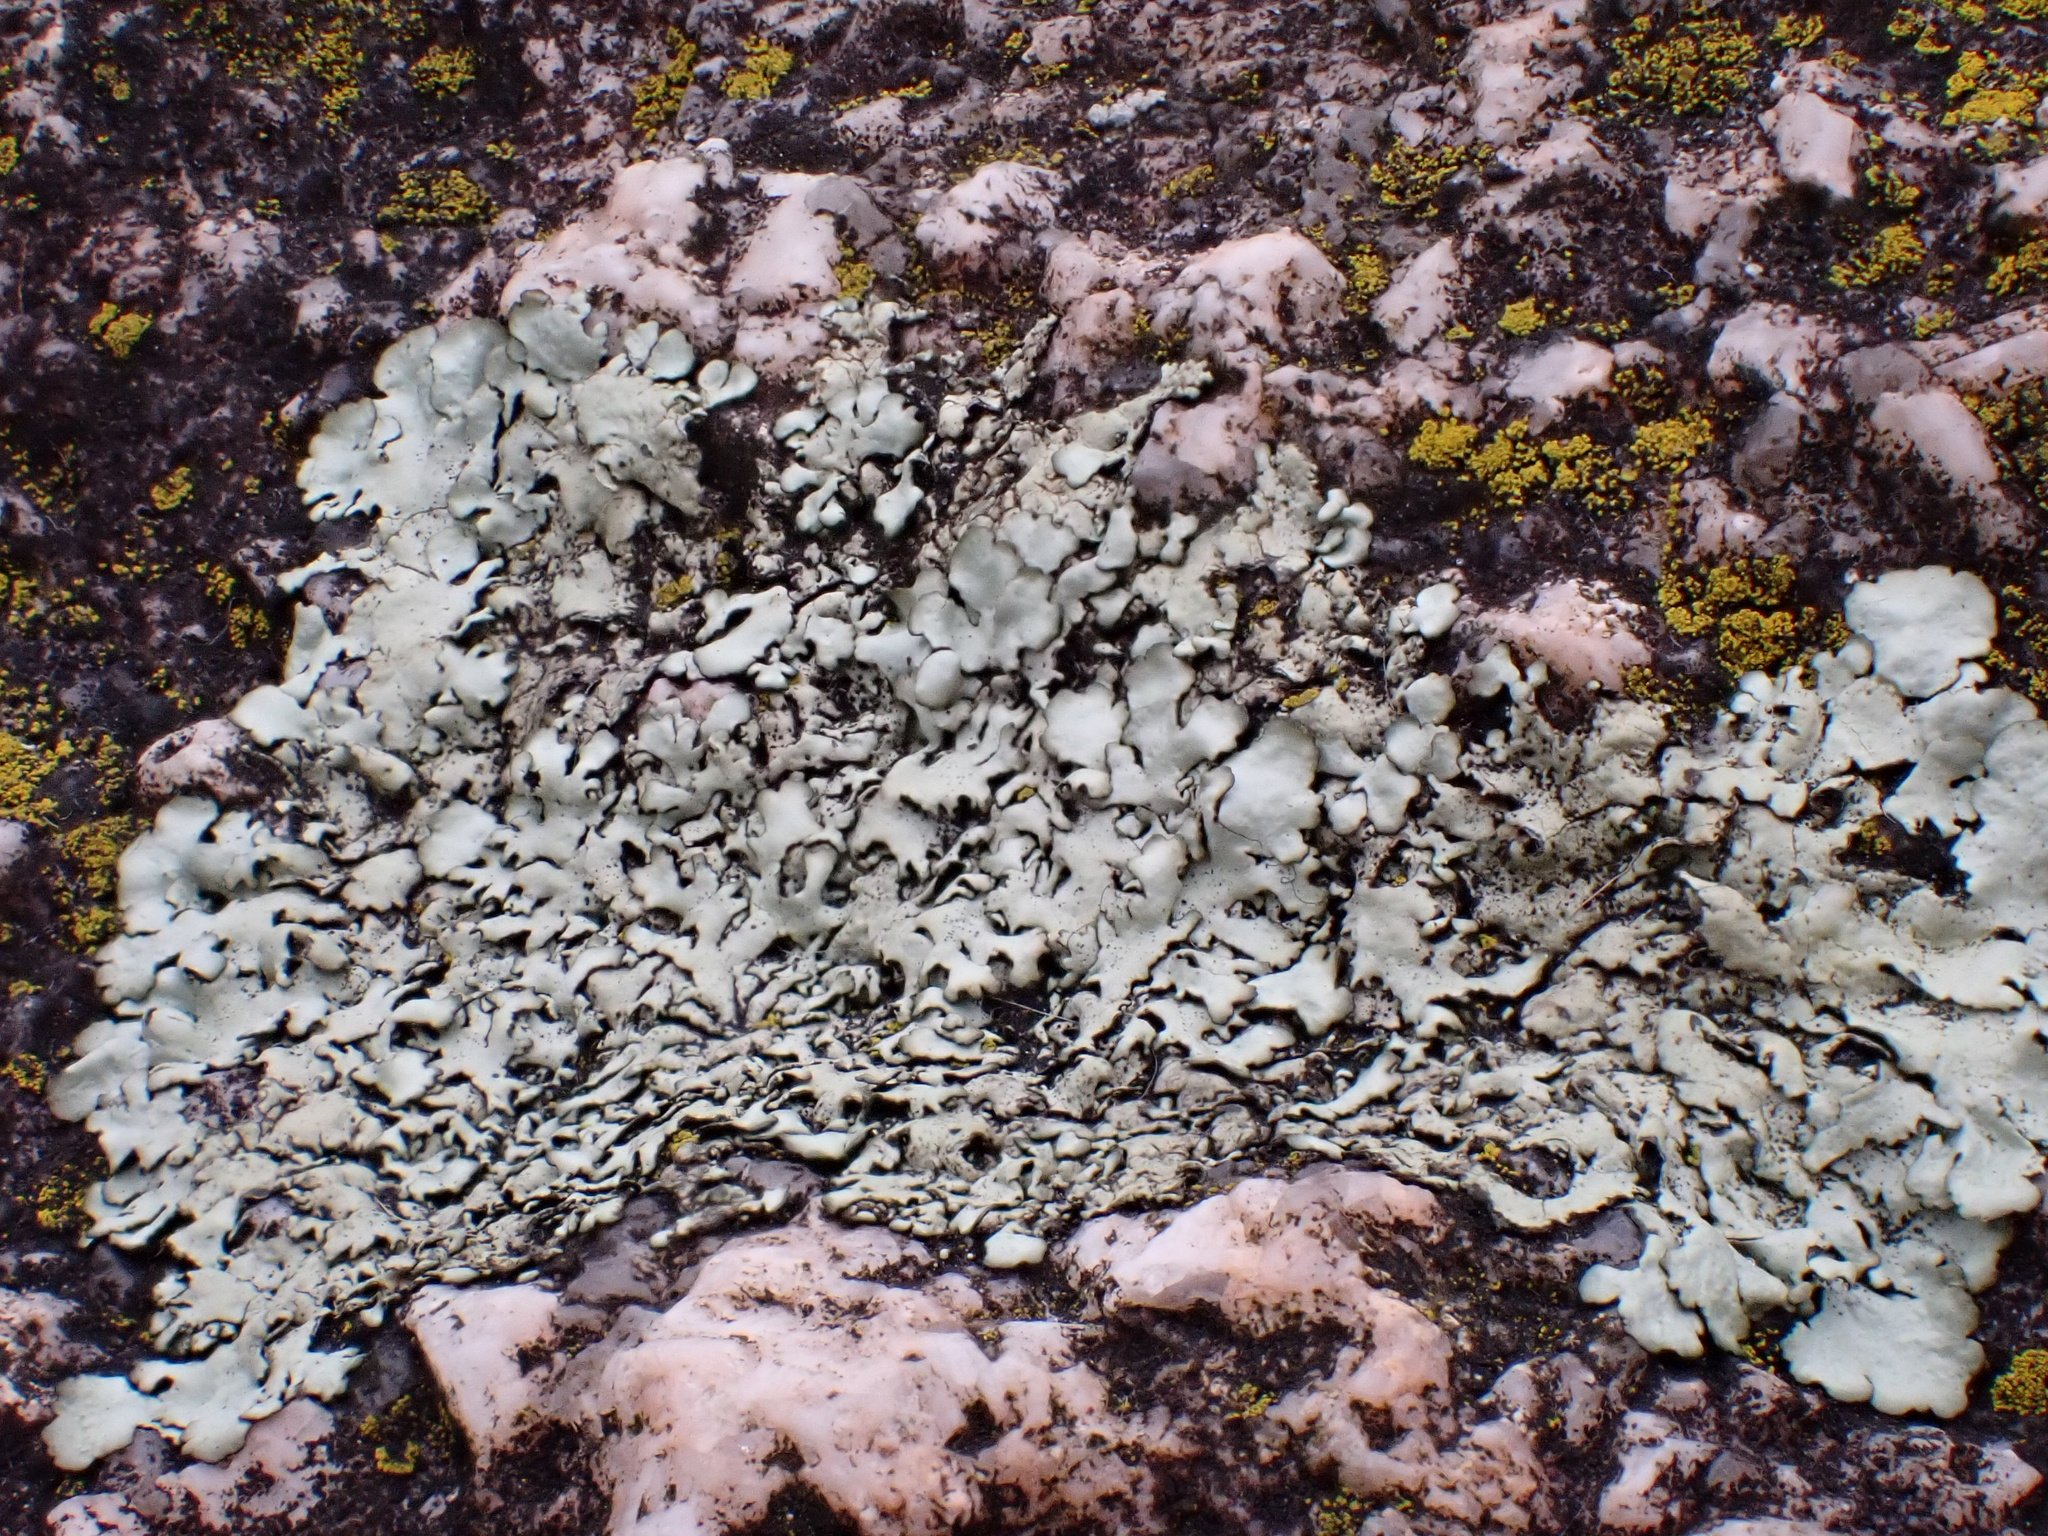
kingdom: Fungi
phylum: Ascomycota
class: Lecanoromycetes
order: Lecanorales
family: Parmeliaceae
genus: Xanthoparmelia
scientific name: Xanthoparmelia conspersa
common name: Peppered rock shield
